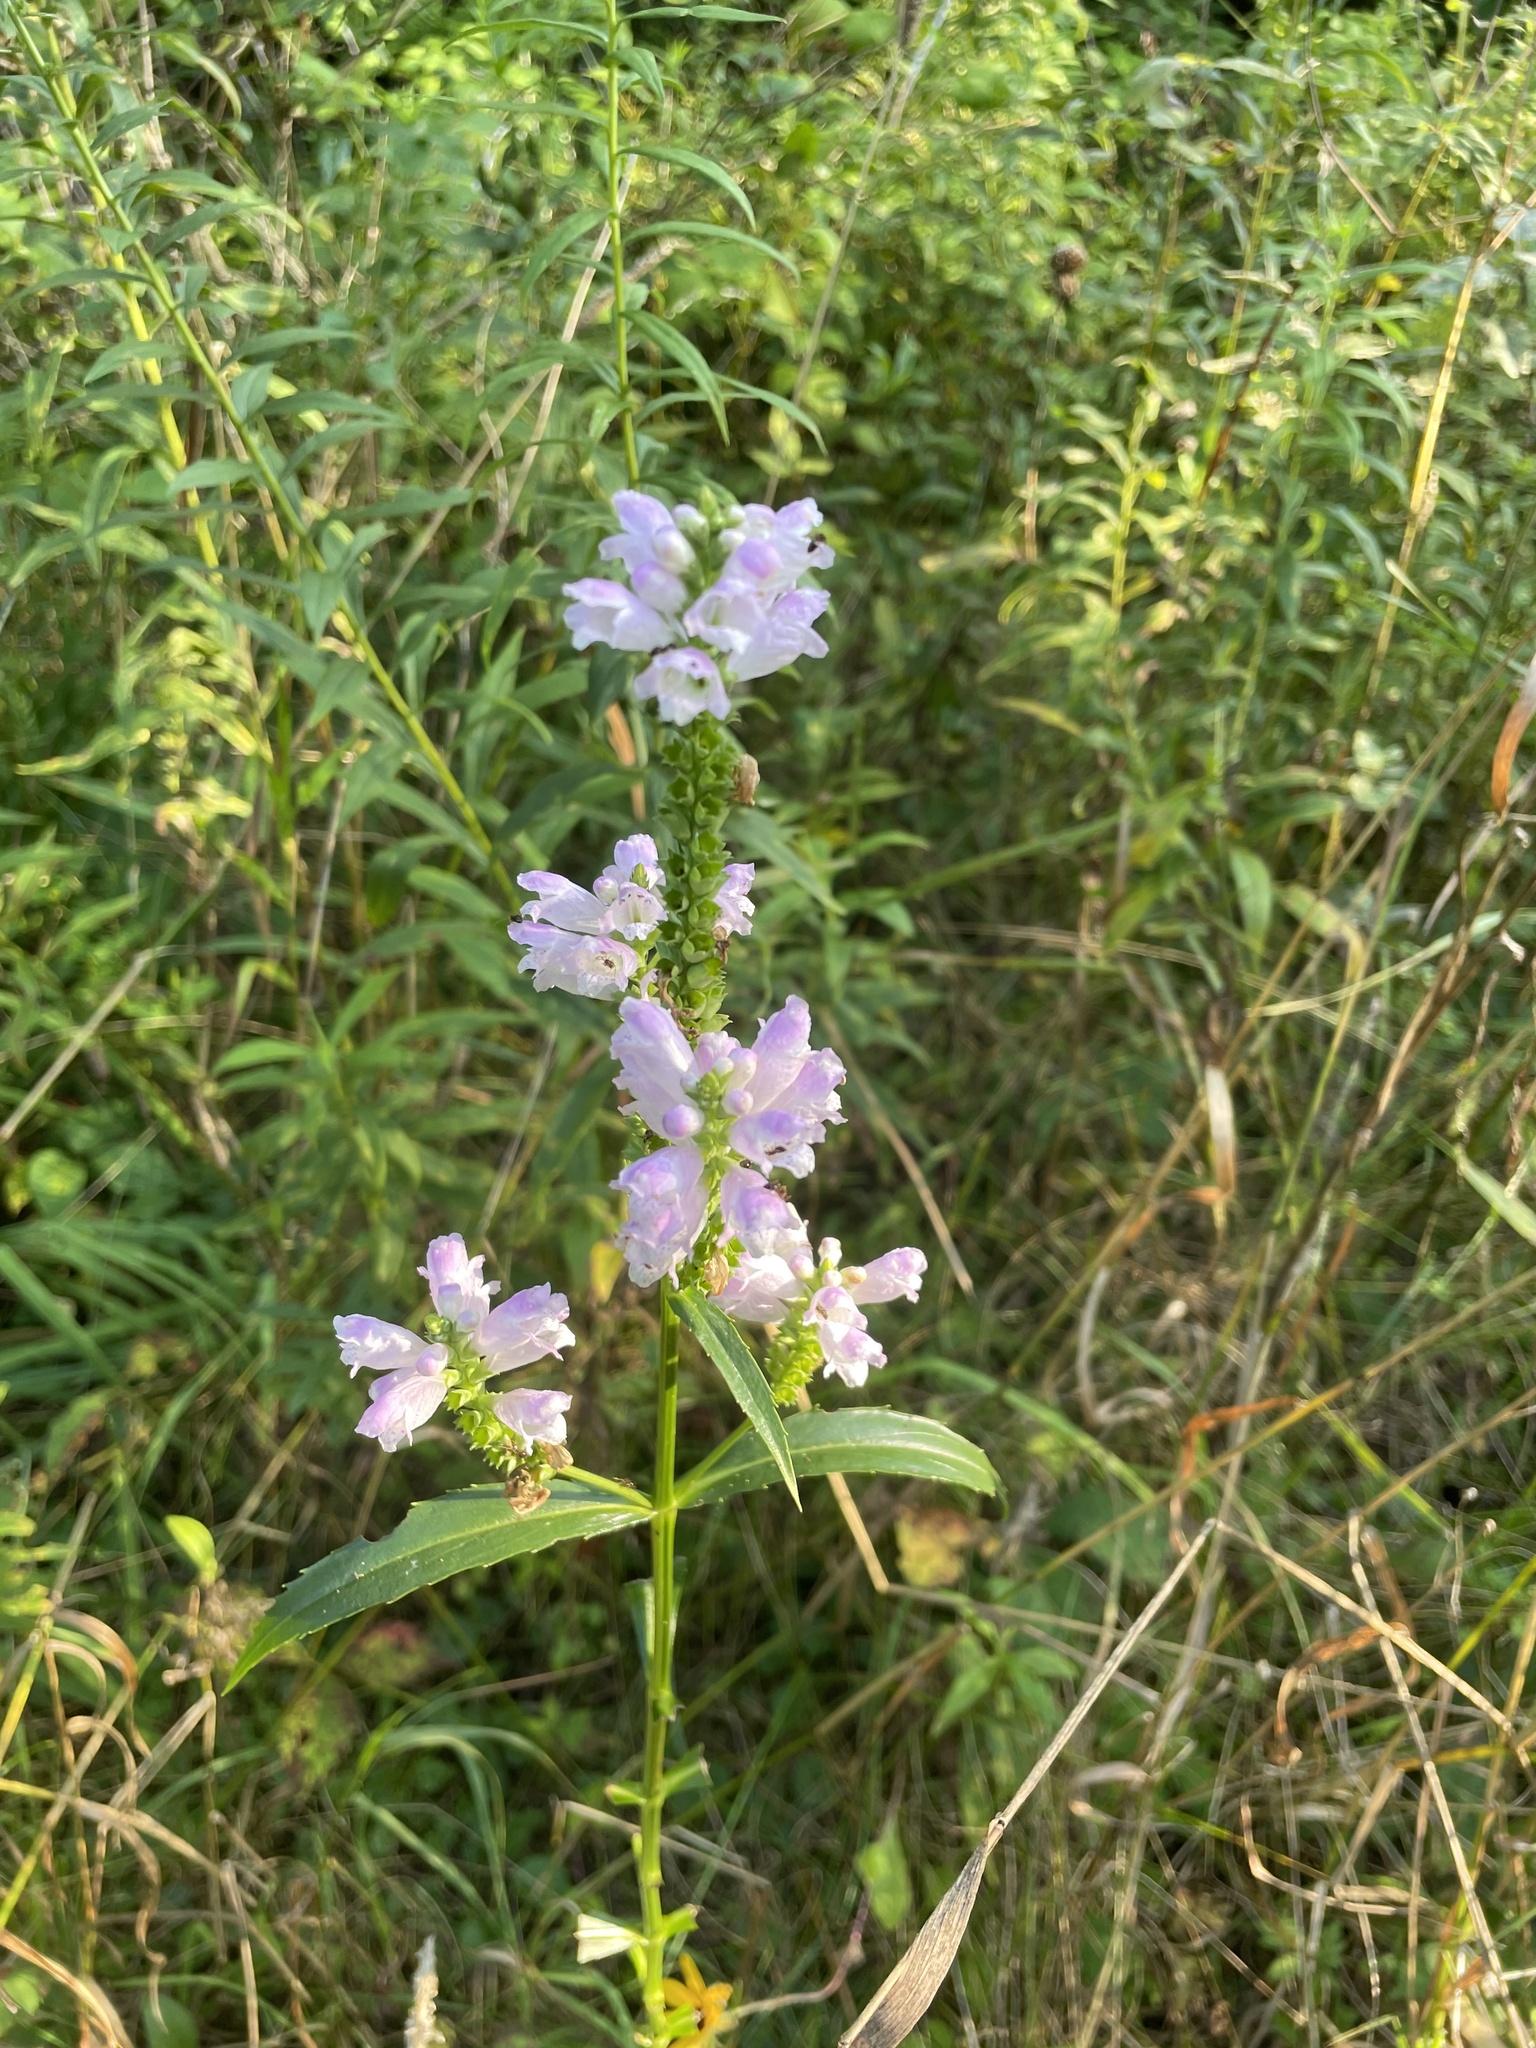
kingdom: Plantae
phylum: Tracheophyta
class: Magnoliopsida
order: Lamiales
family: Lamiaceae
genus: Physostegia
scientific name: Physostegia virginiana
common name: Obedient-plant
